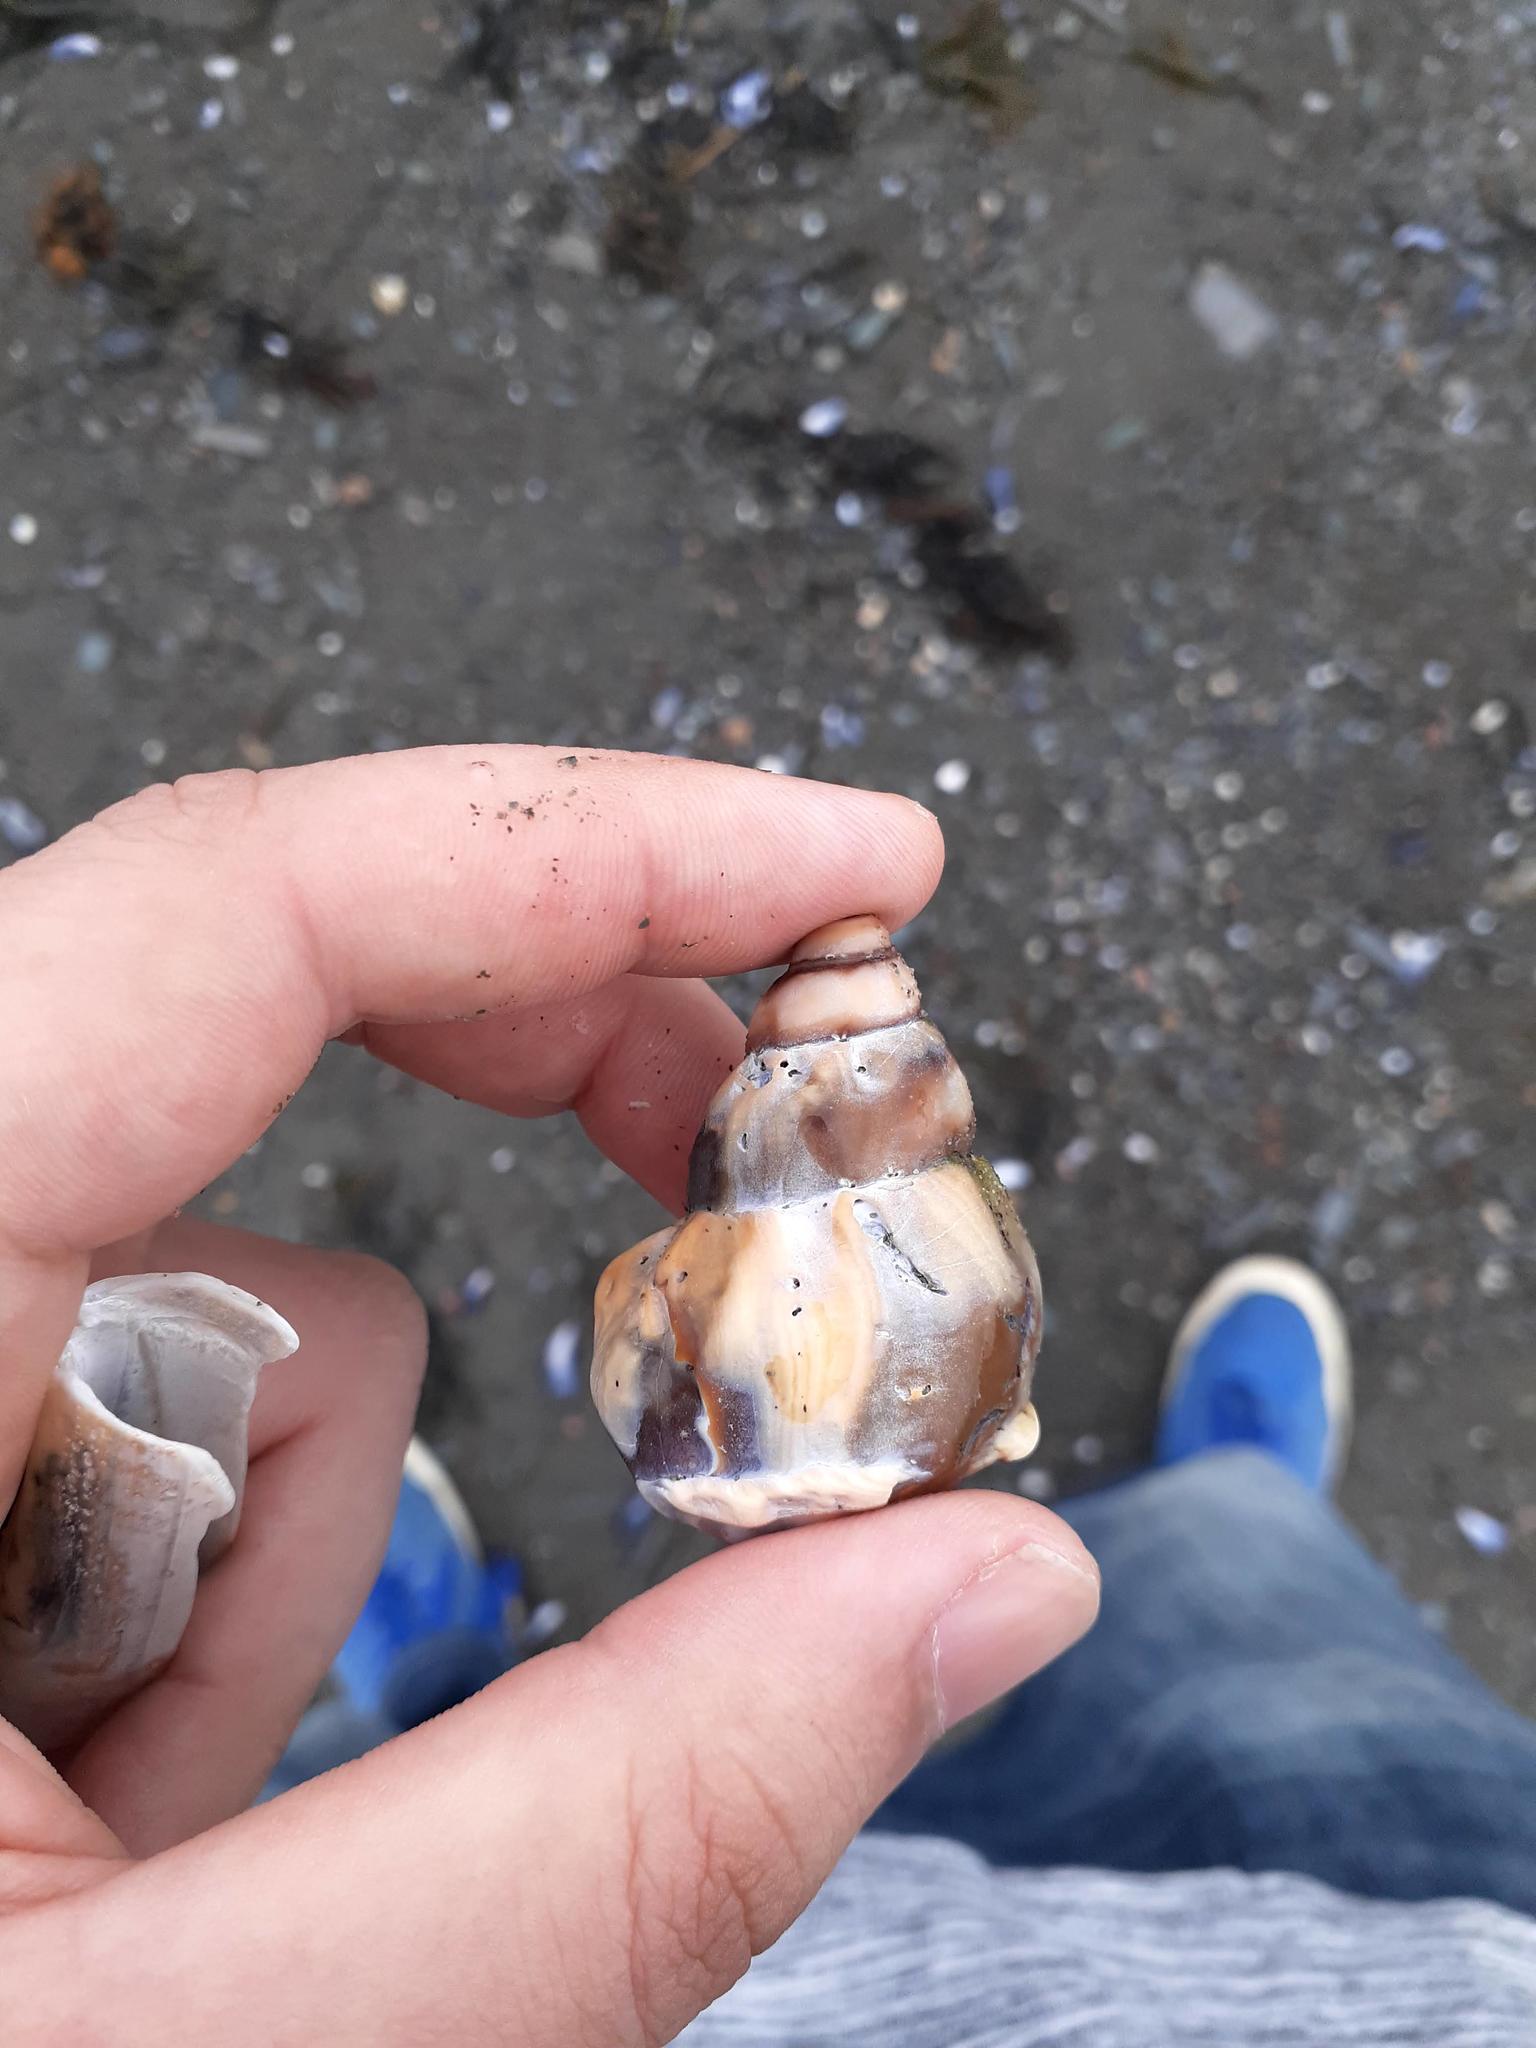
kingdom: Animalia
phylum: Mollusca
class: Gastropoda
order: Neogastropoda
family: Buccinidae
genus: Buccinum
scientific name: Buccinum undatum
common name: Common whelk
